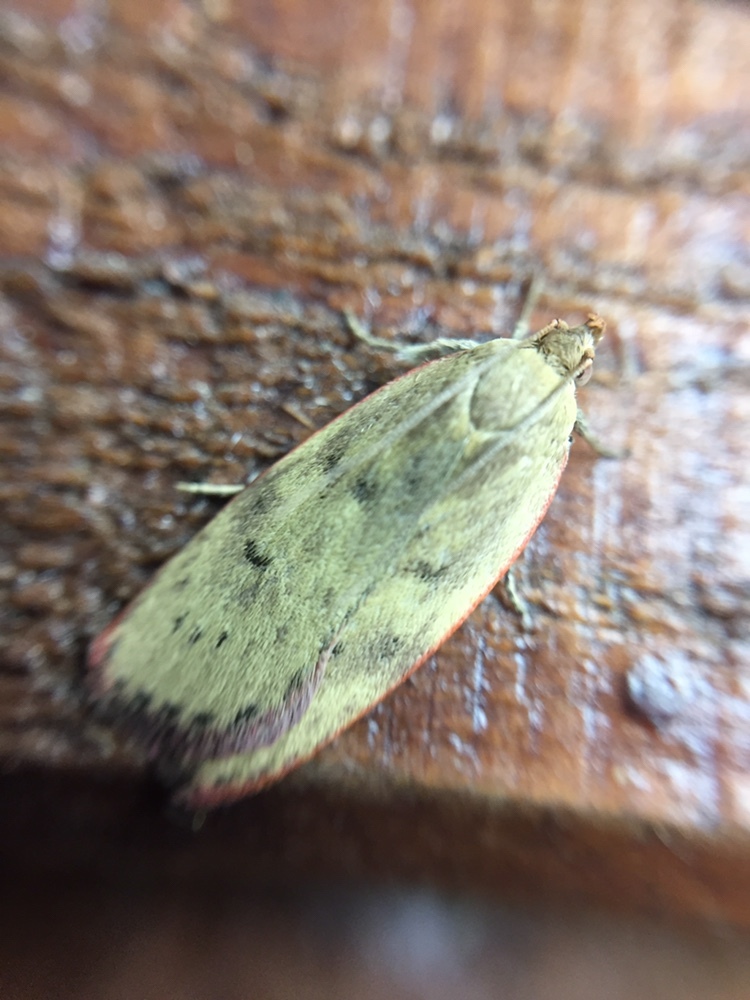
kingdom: Animalia
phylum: Arthropoda
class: Insecta
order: Lepidoptera
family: Depressariidae
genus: Phaeosaces
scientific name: Phaeosaces coarctatella
